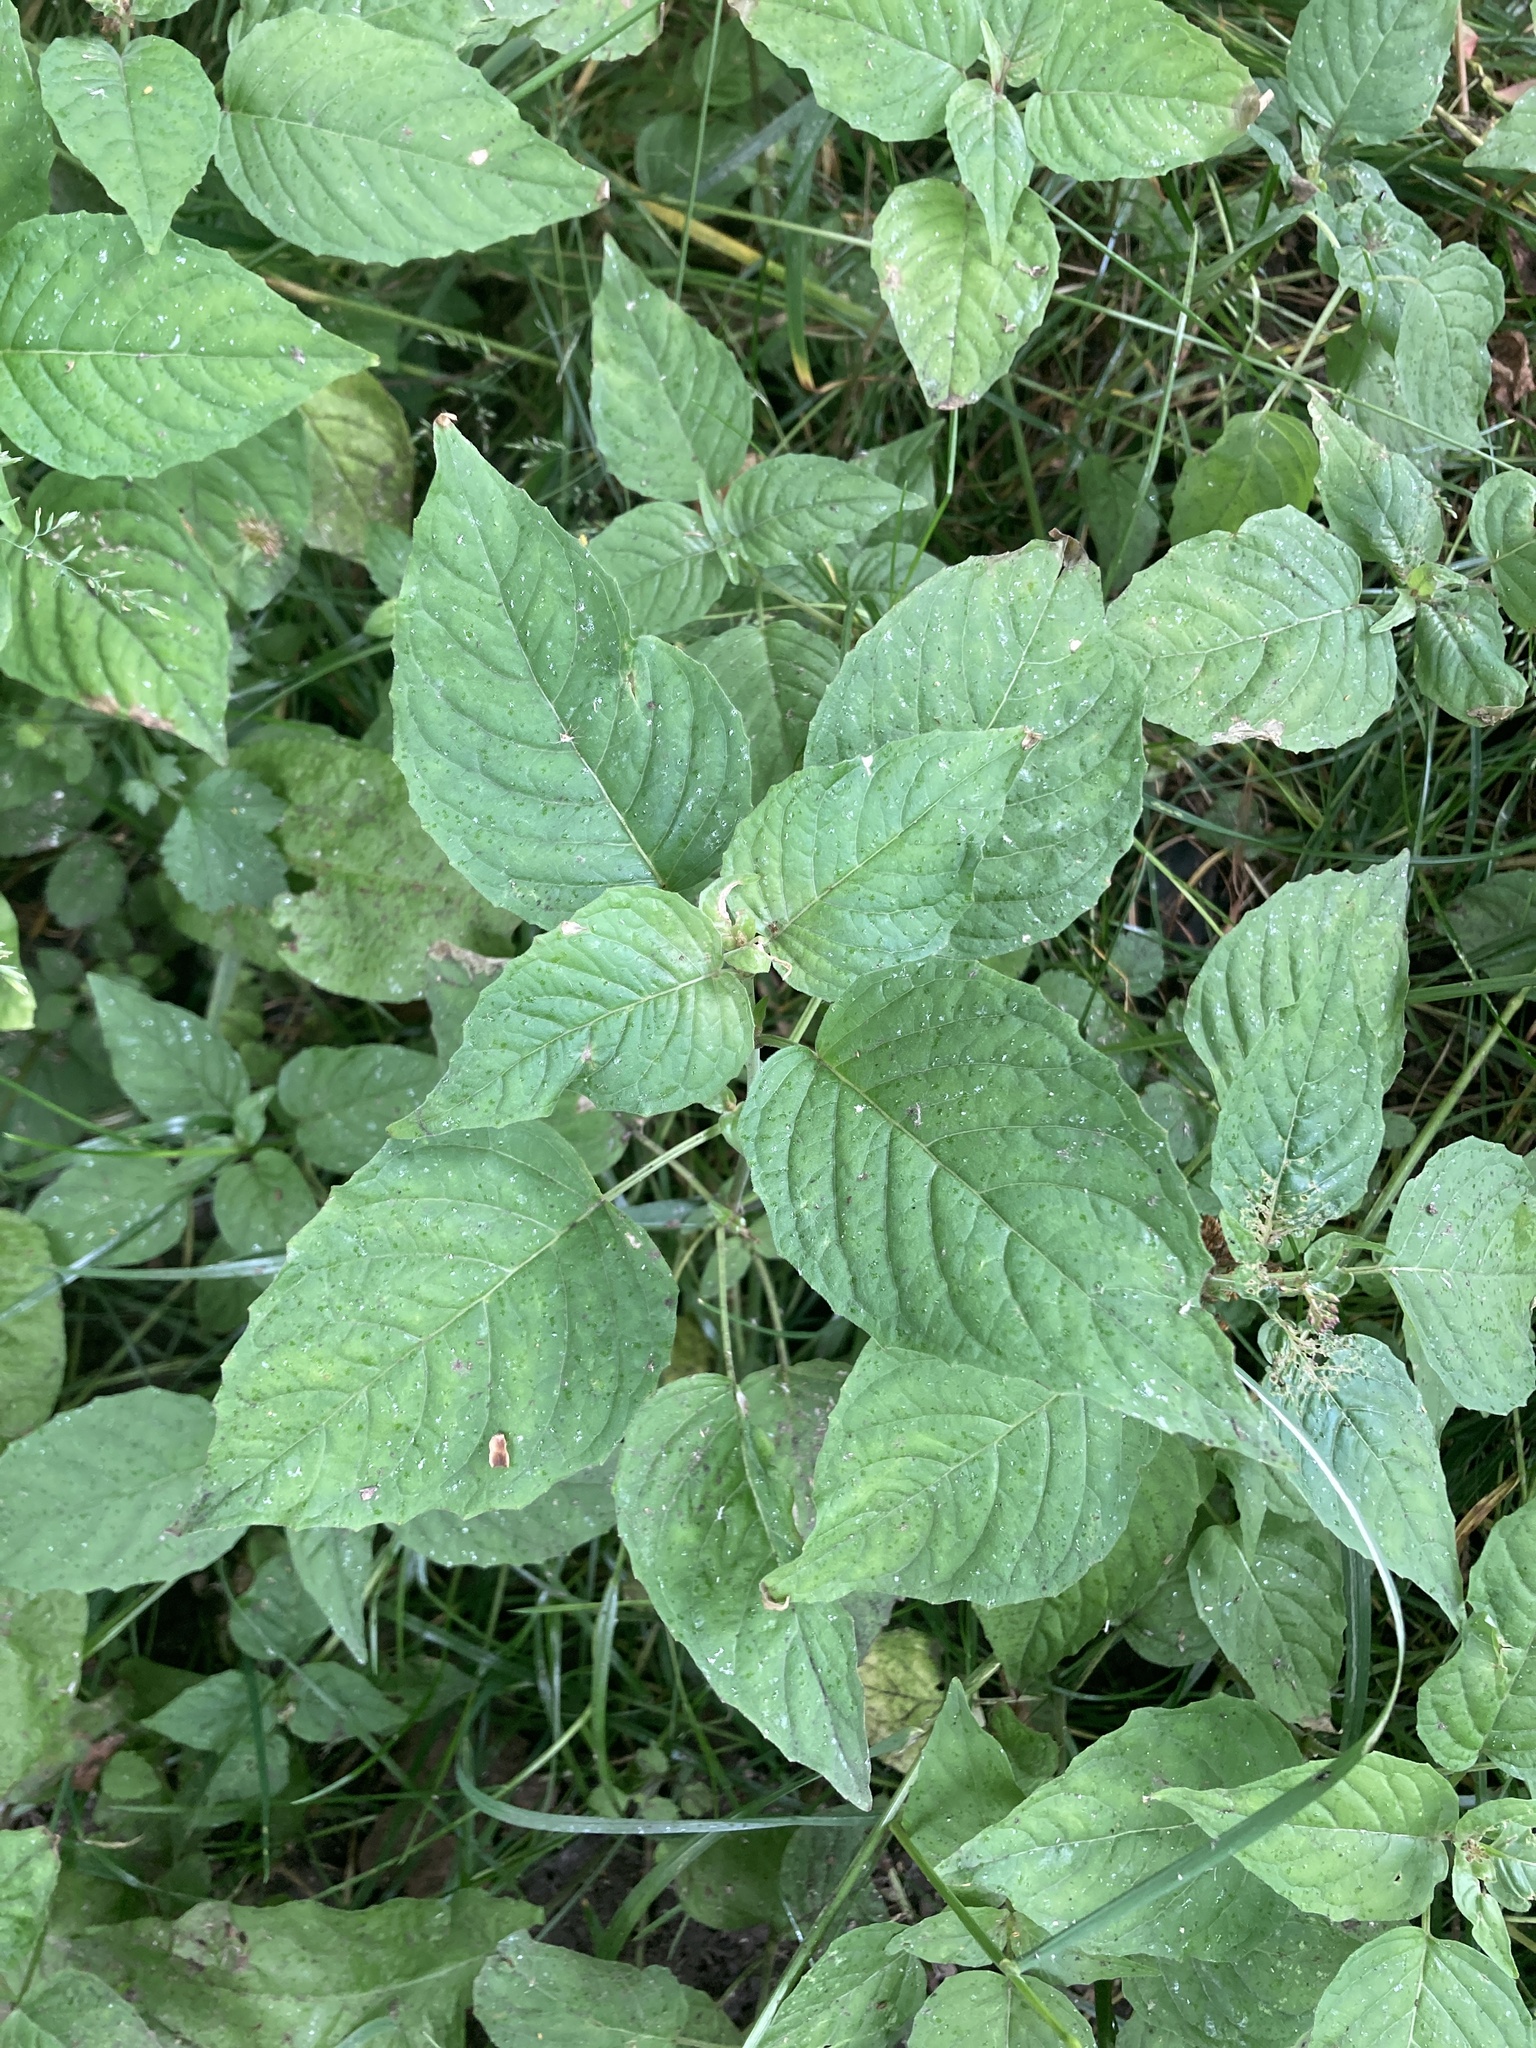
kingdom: Plantae
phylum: Tracheophyta
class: Magnoliopsida
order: Myrtales
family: Onagraceae
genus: Circaea
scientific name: Circaea lutetiana
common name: Enchanter's-nightshade
